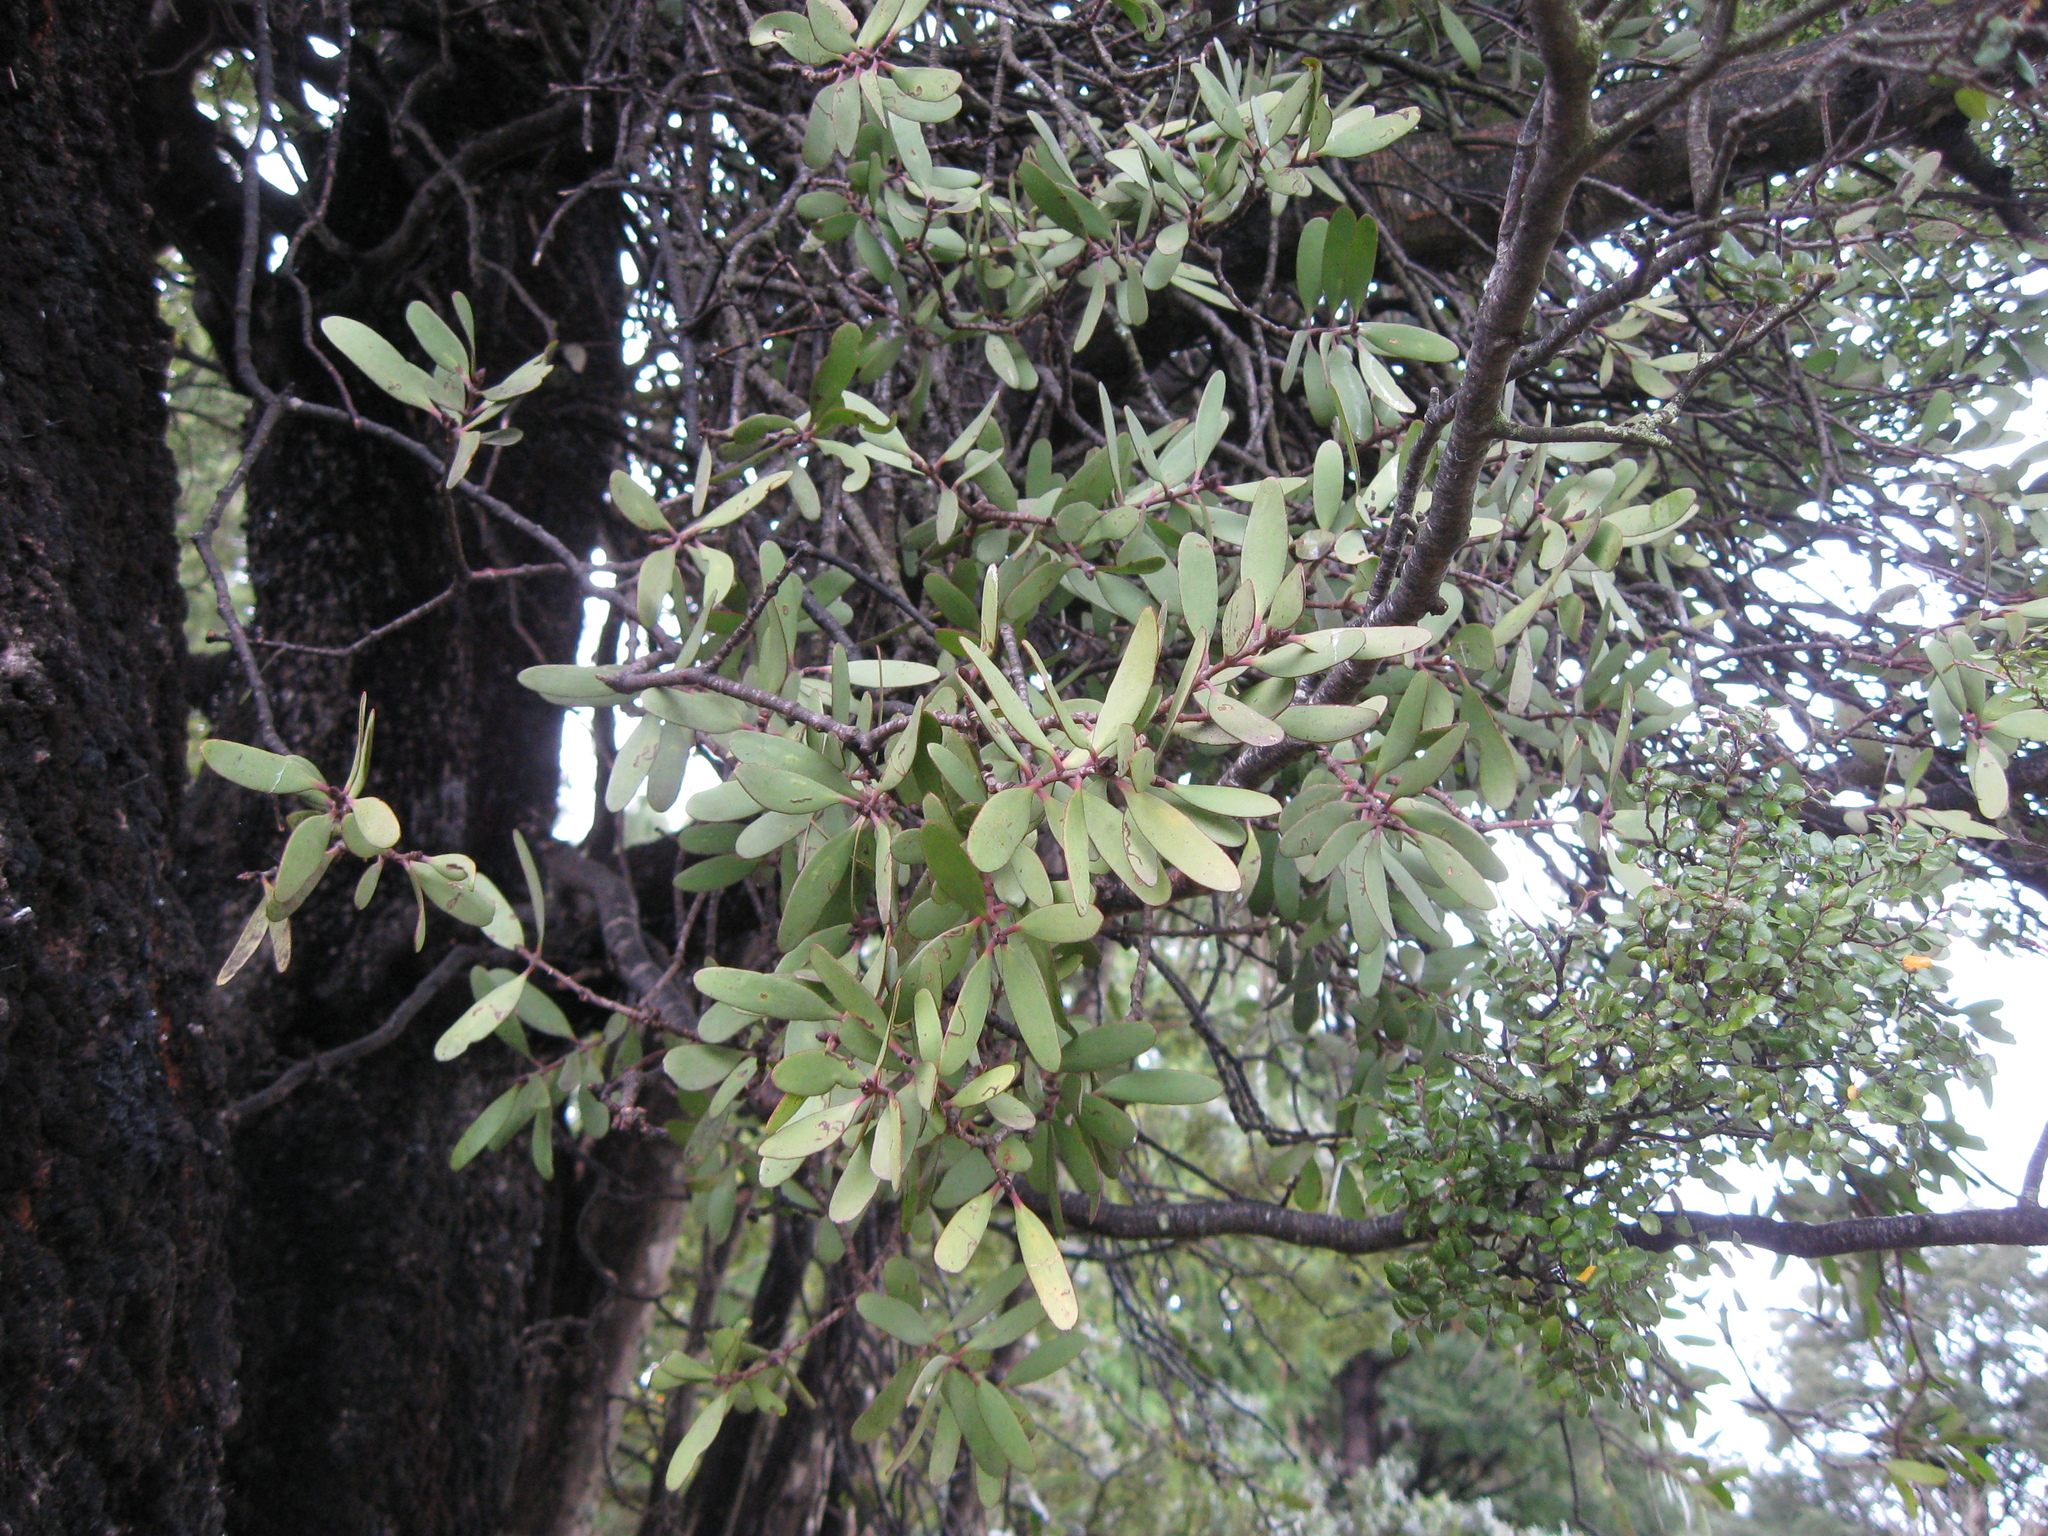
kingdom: Plantae
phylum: Tracheophyta
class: Magnoliopsida
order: Santalales
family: Loranthaceae
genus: Alepis
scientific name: Alepis flavida
